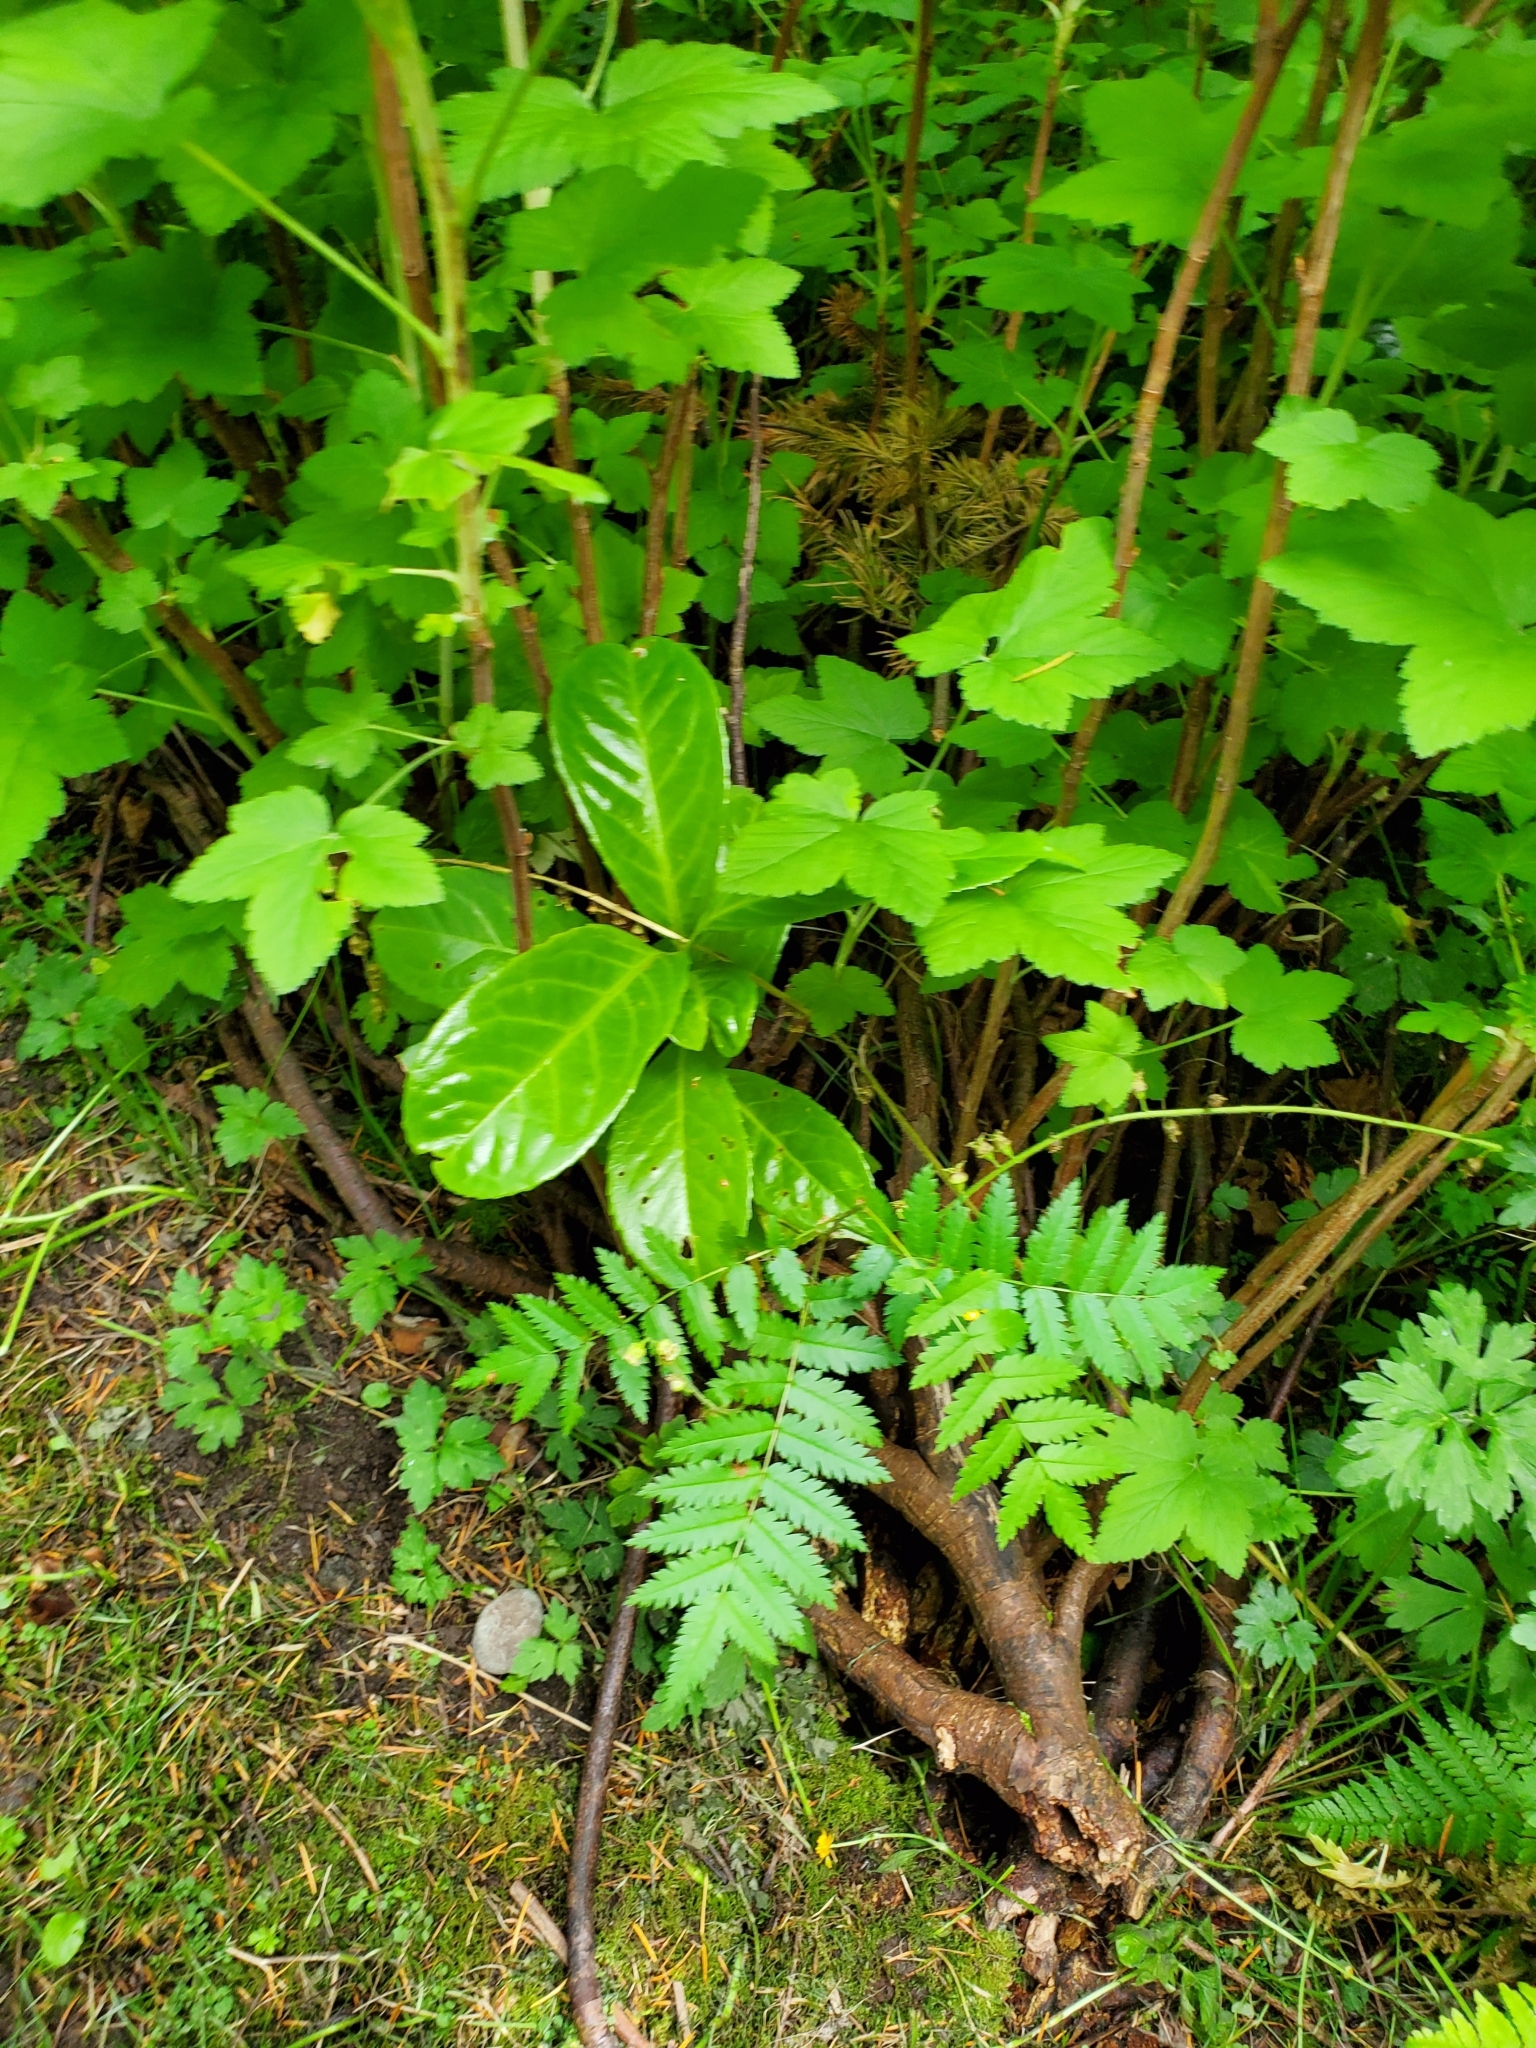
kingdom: Plantae
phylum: Tracheophyta
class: Magnoliopsida
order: Rosales
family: Rosaceae
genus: Prunus
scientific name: Prunus laurocerasus
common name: Cherry laurel
